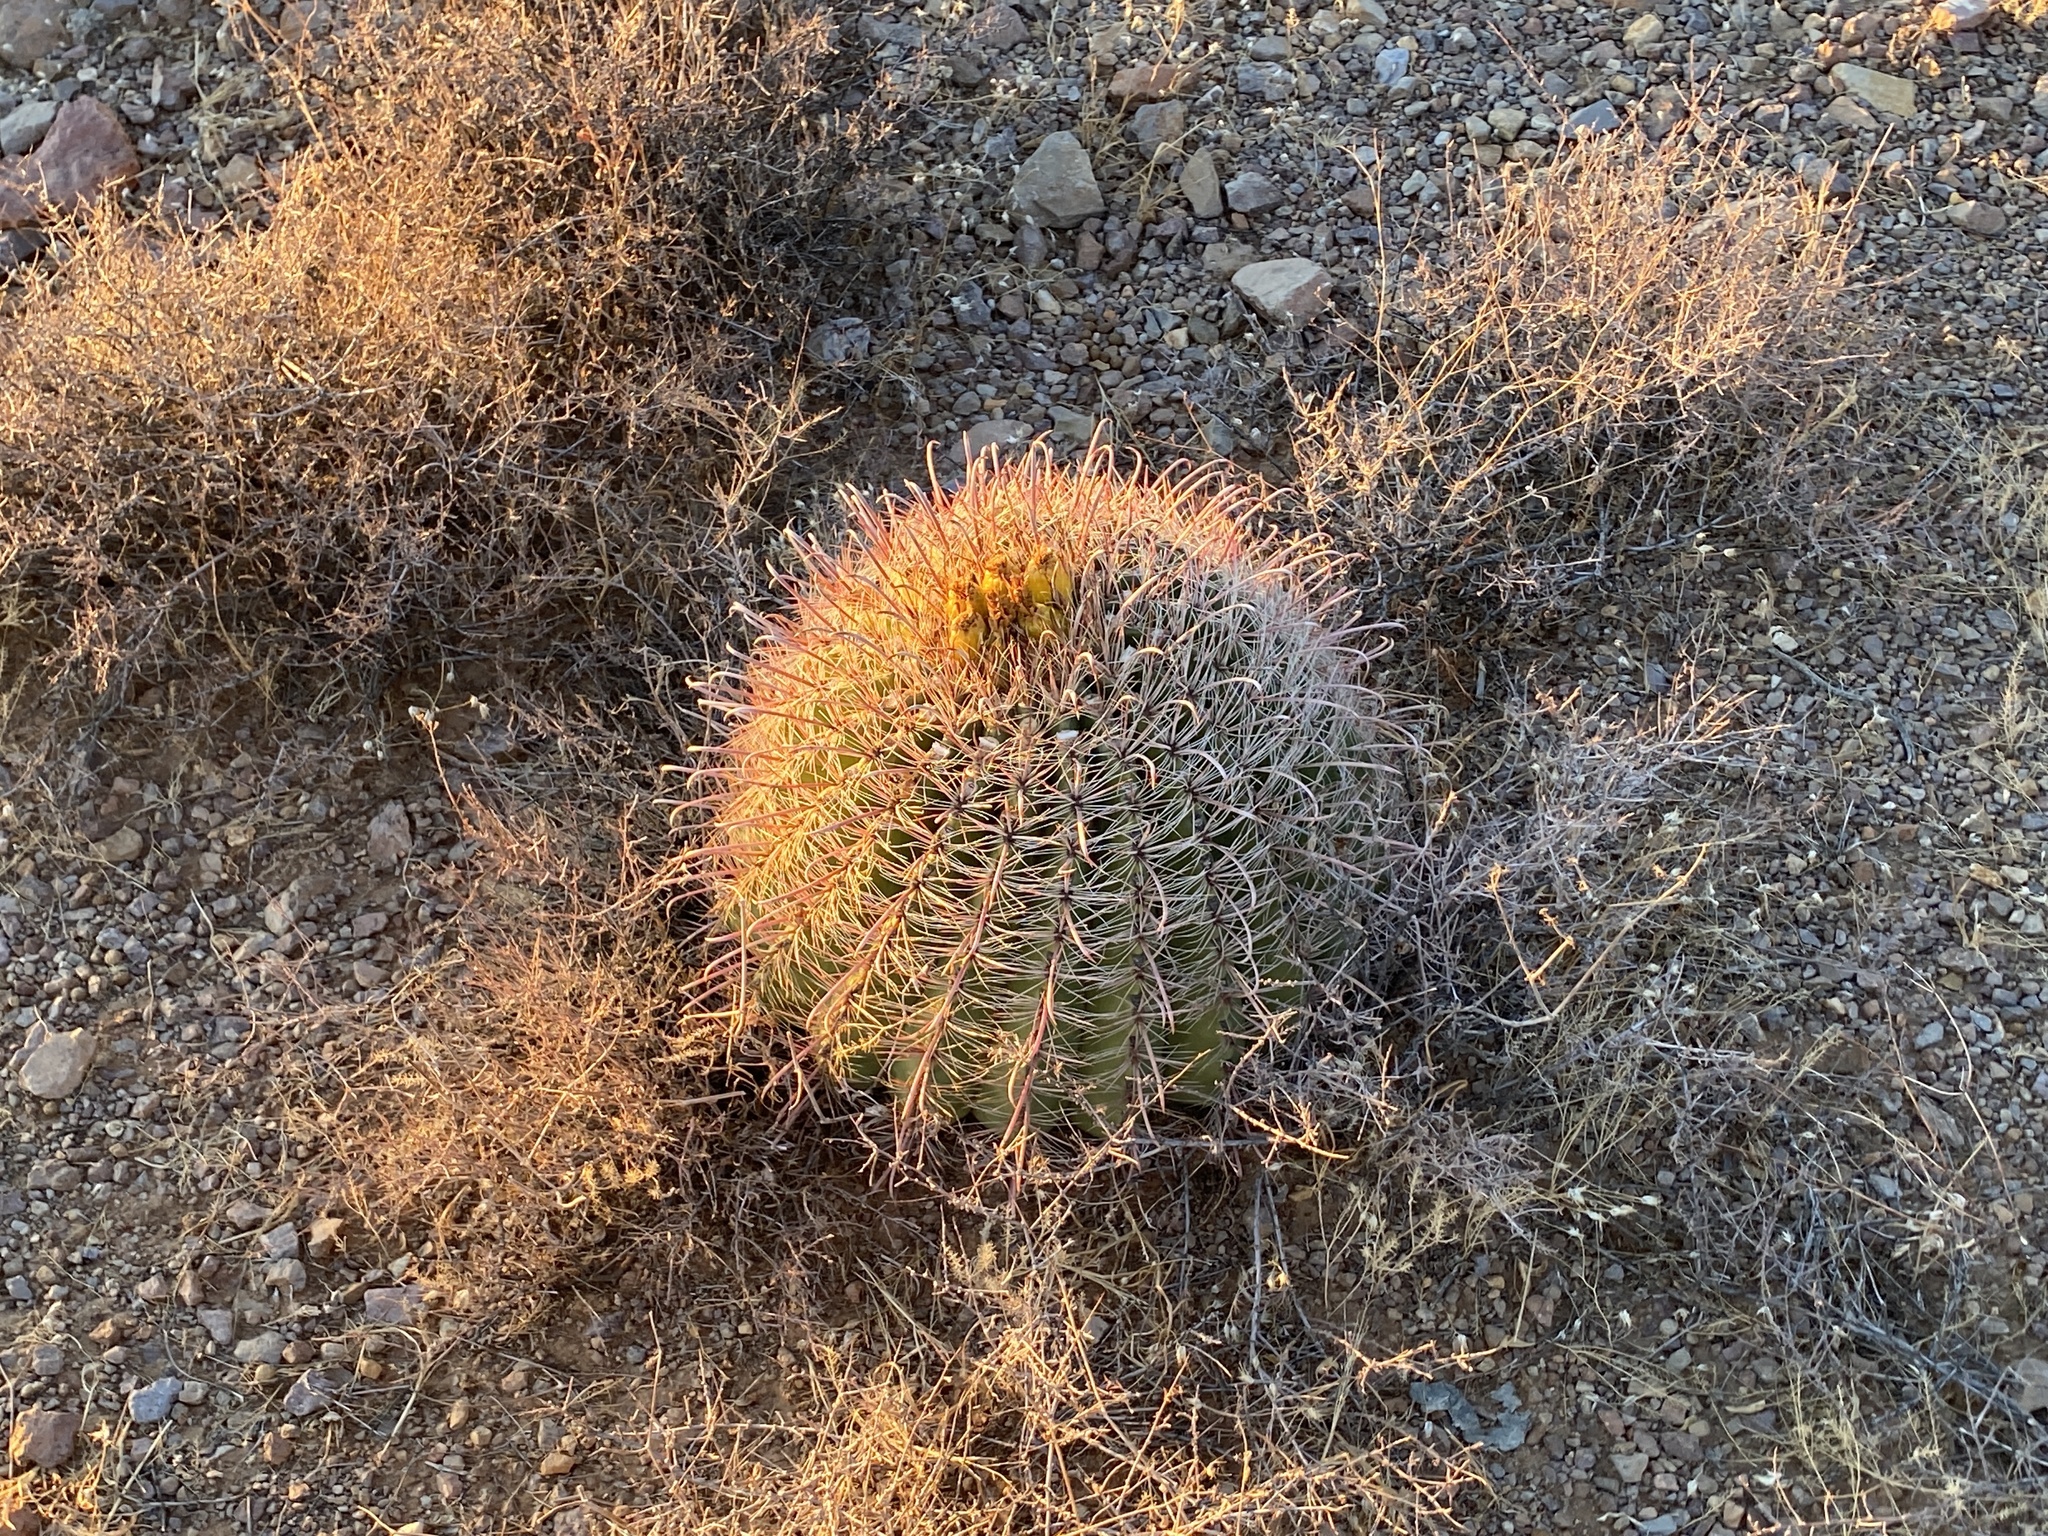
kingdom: Plantae
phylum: Tracheophyta
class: Magnoliopsida
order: Caryophyllales
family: Cactaceae
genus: Ferocactus
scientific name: Ferocactus wislizeni
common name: Candy barrel cactus
